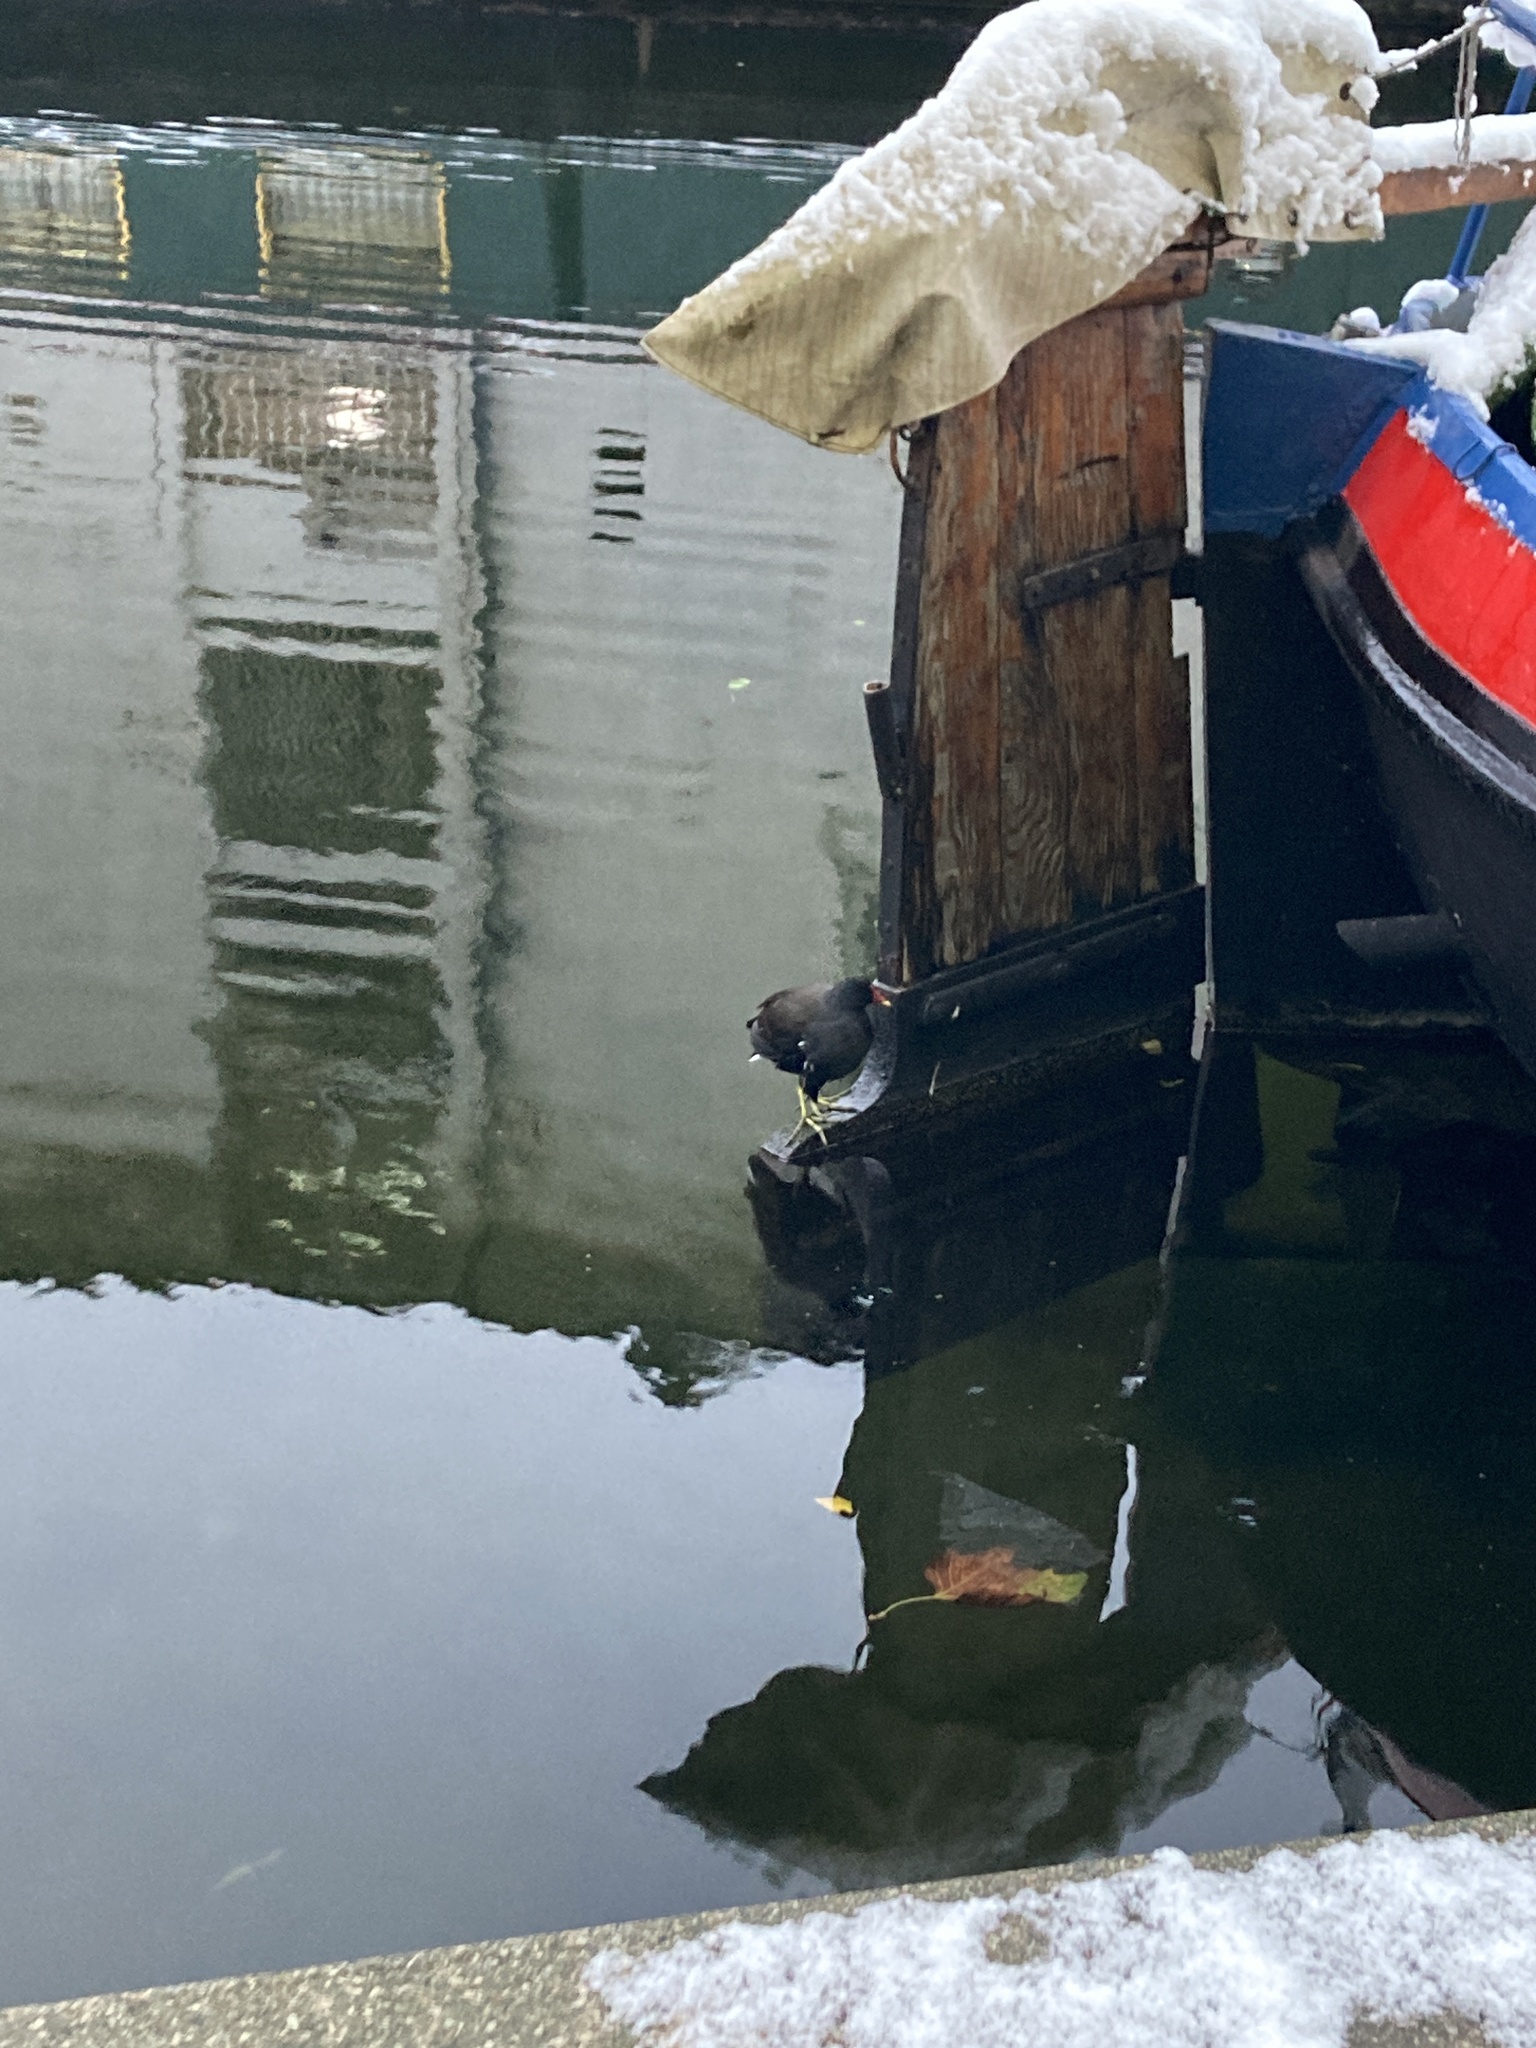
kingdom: Animalia
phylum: Chordata
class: Aves
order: Gruiformes
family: Rallidae
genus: Gallinula
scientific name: Gallinula chloropus
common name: Common moorhen
